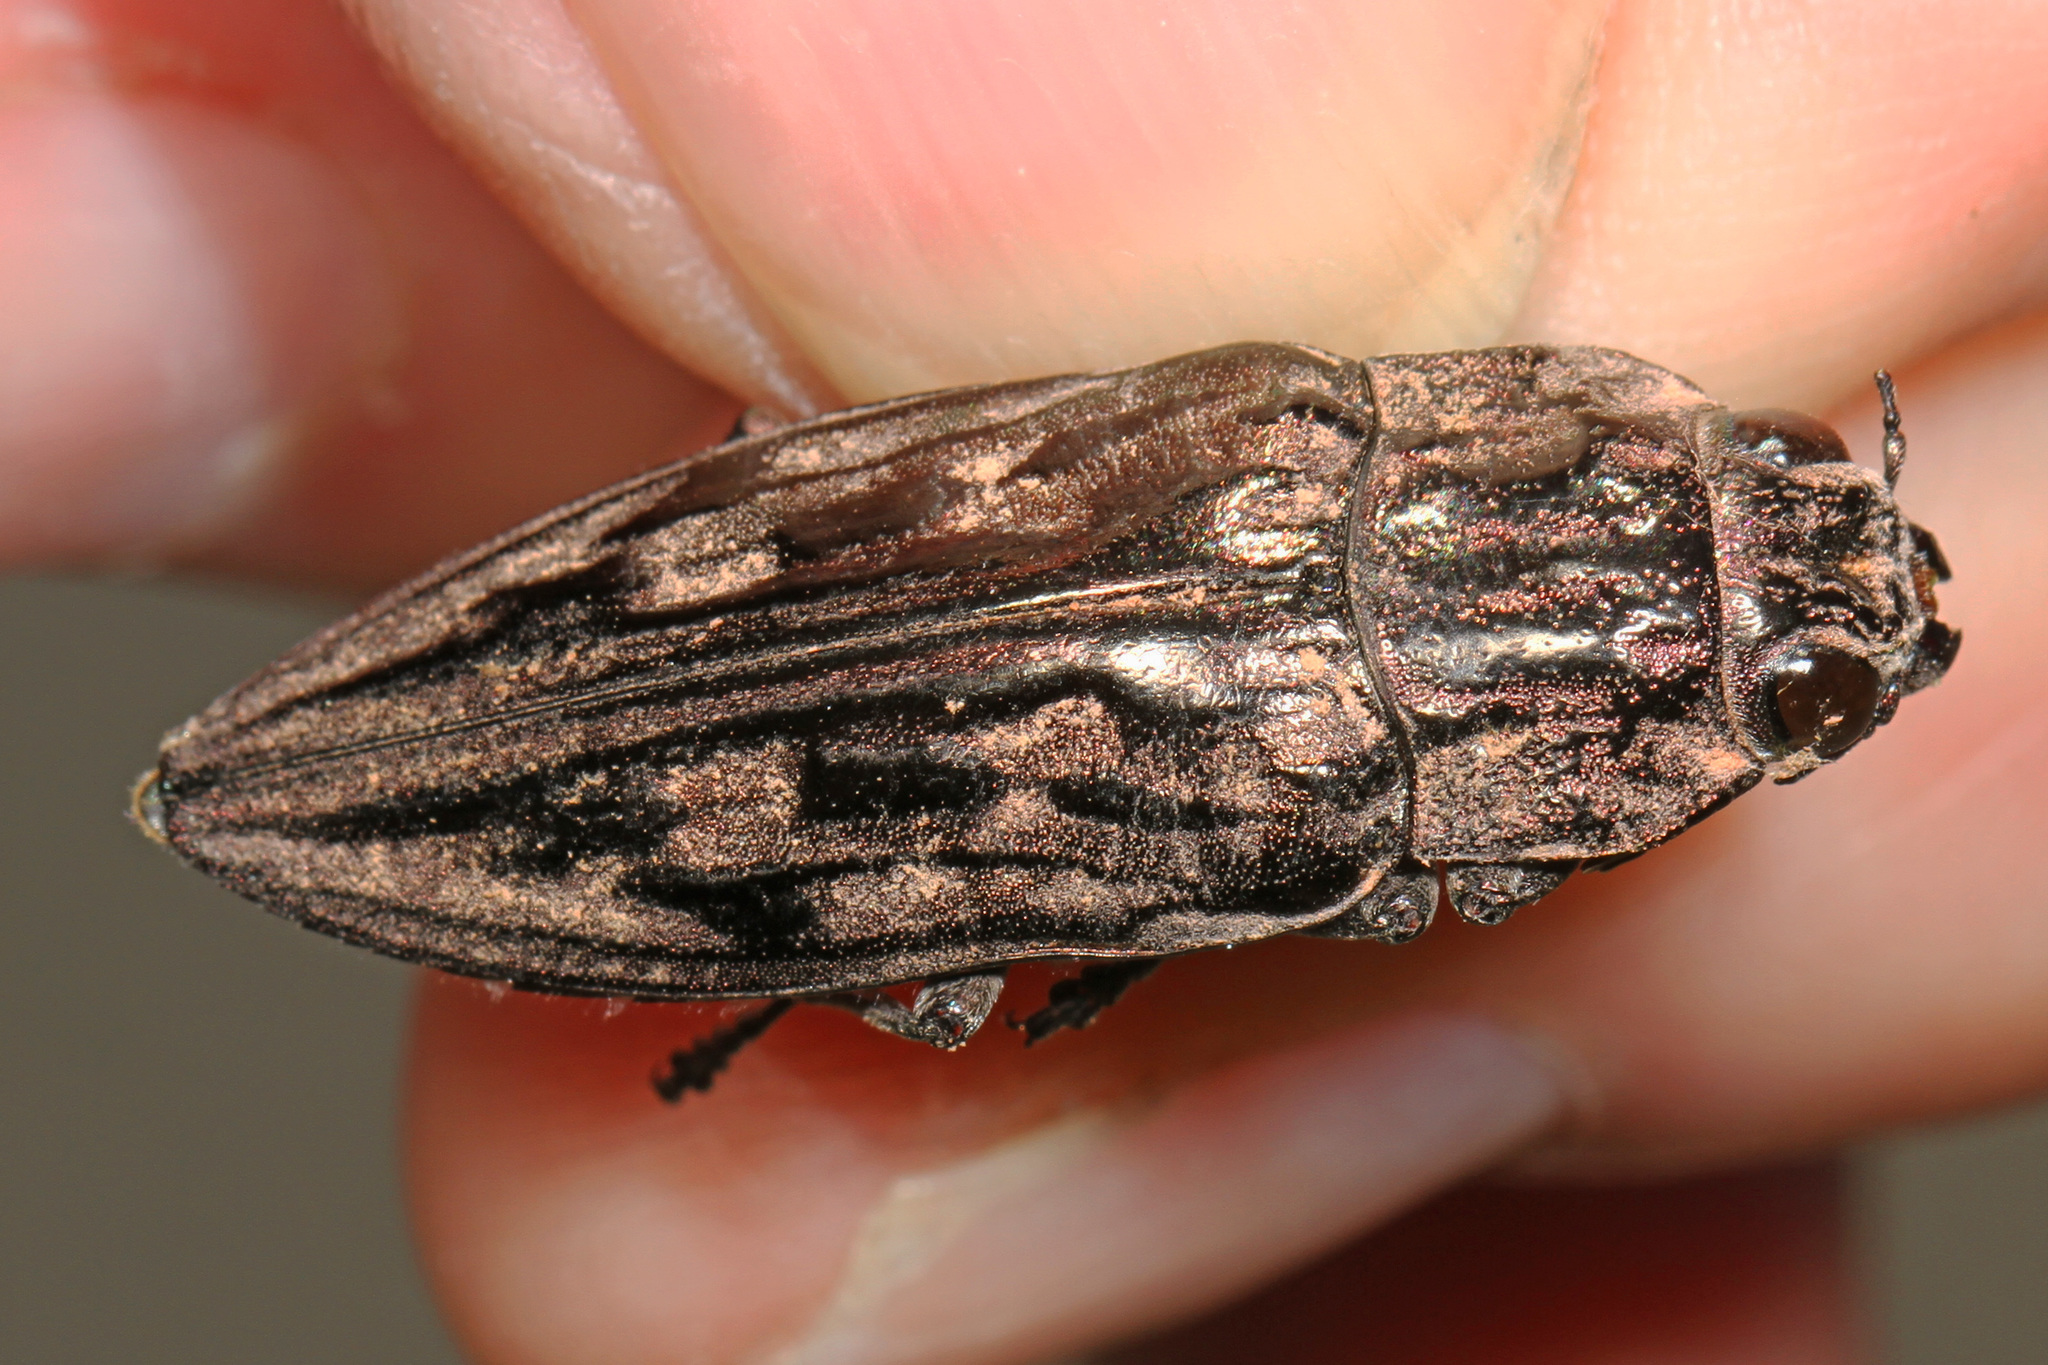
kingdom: Animalia
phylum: Arthropoda
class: Insecta
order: Coleoptera
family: Buprestidae
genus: Chalcophora
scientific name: Chalcophora virginiensis
